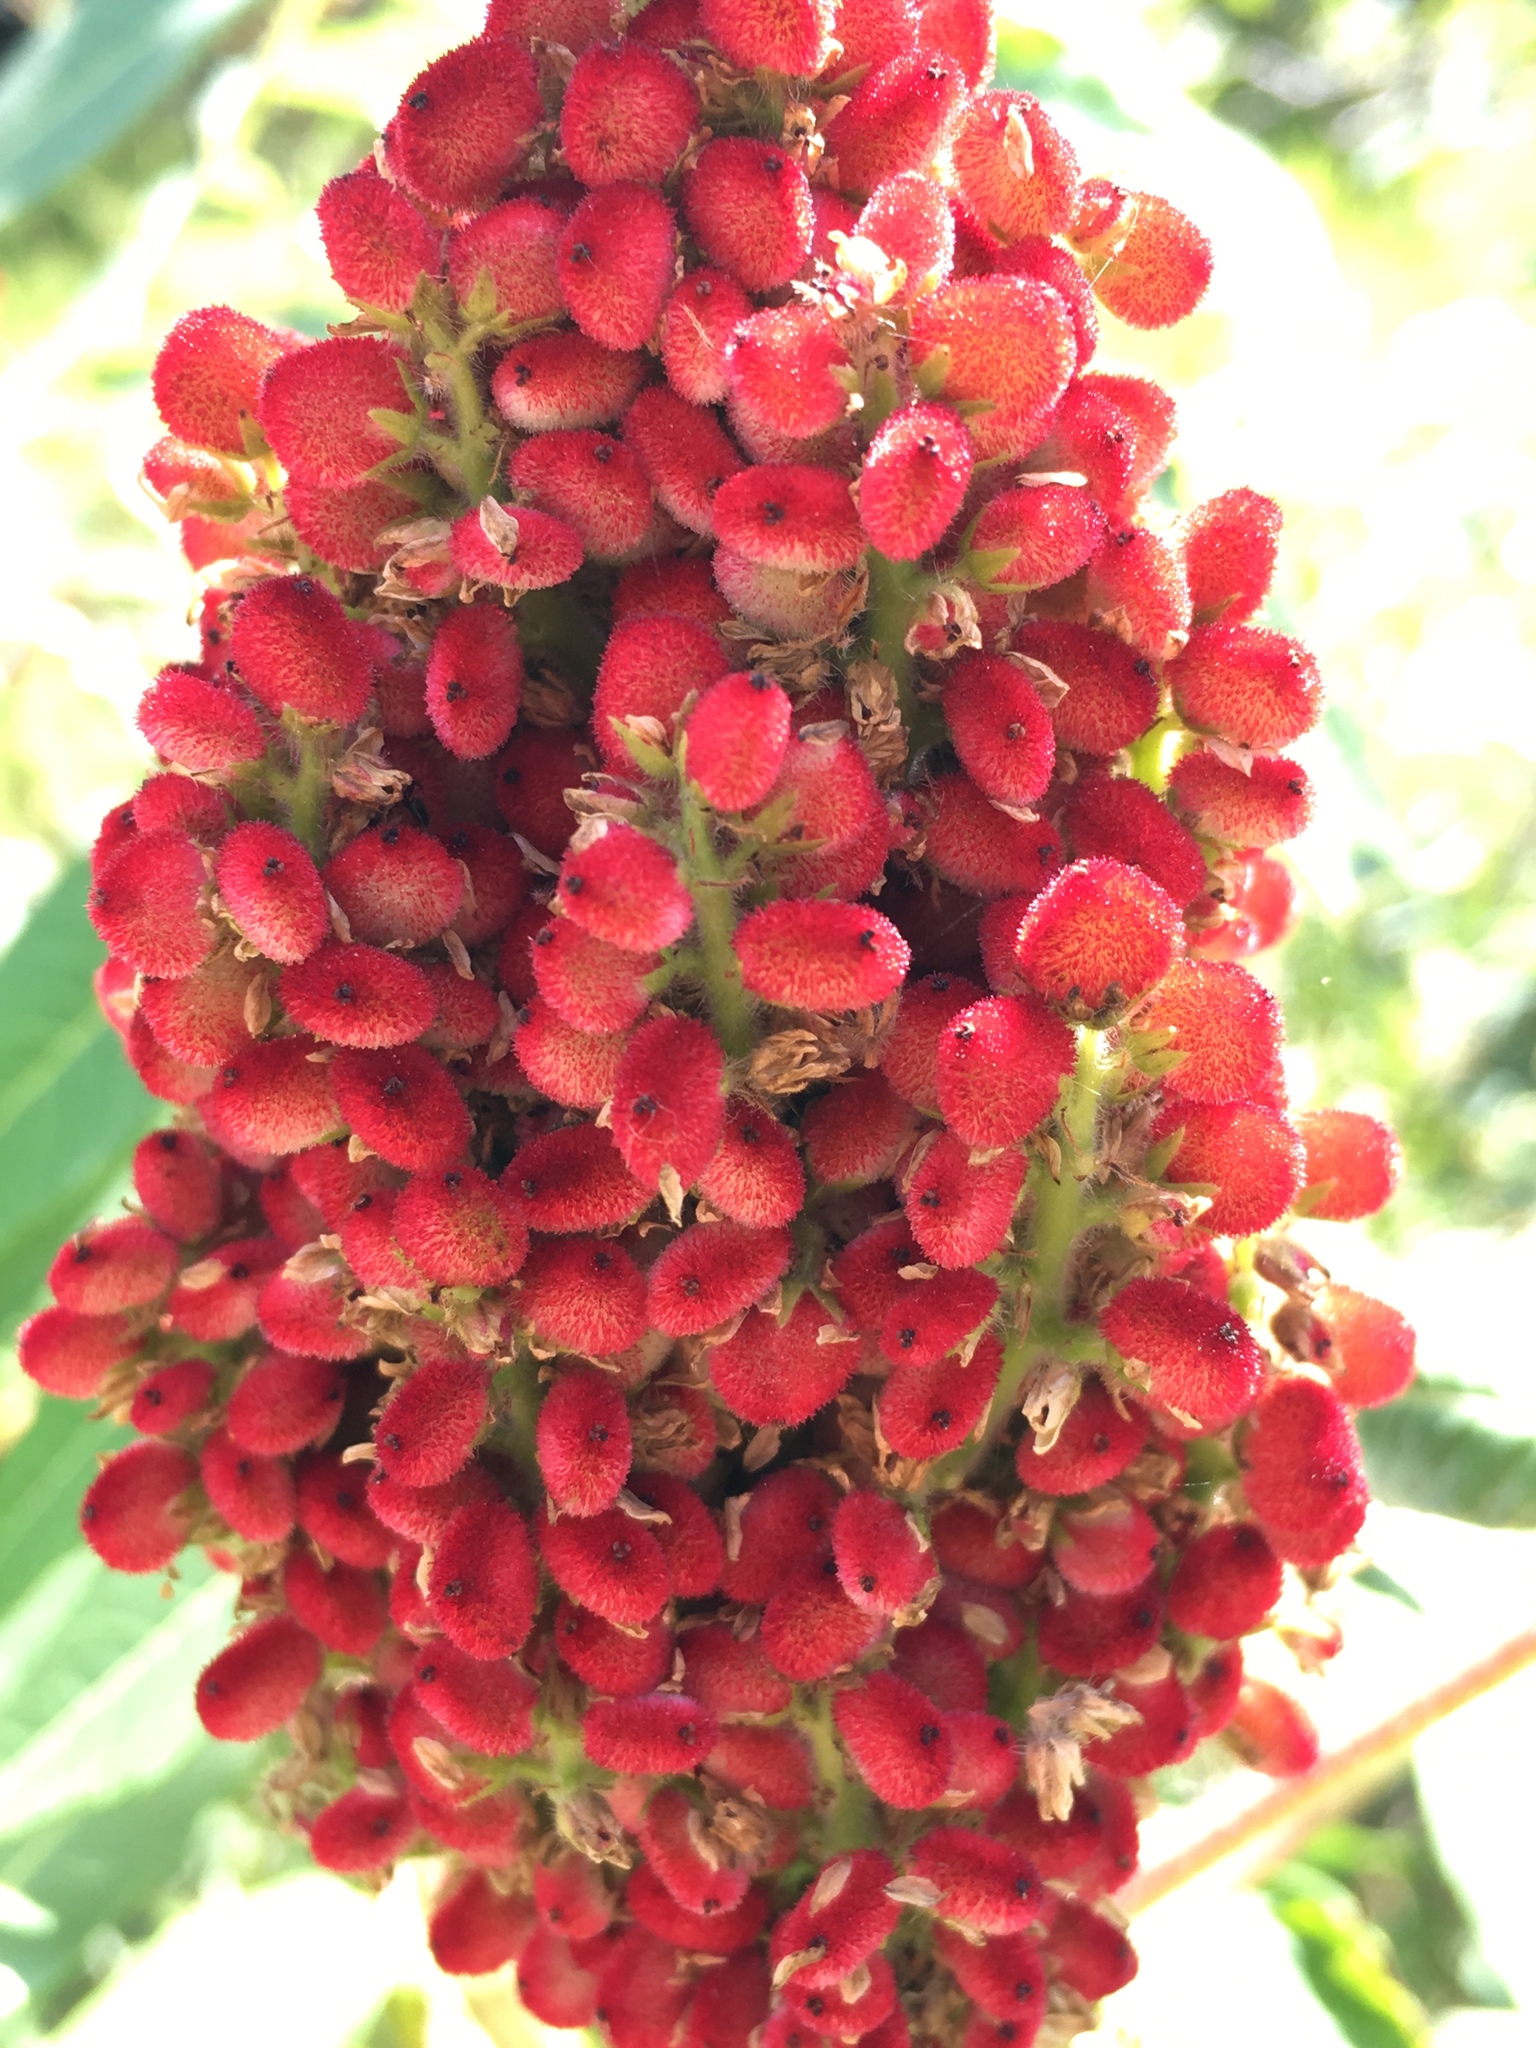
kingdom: Plantae
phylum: Tracheophyta
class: Magnoliopsida
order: Sapindales
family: Anacardiaceae
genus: Rhus
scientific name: Rhus typhina
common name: Staghorn sumac
